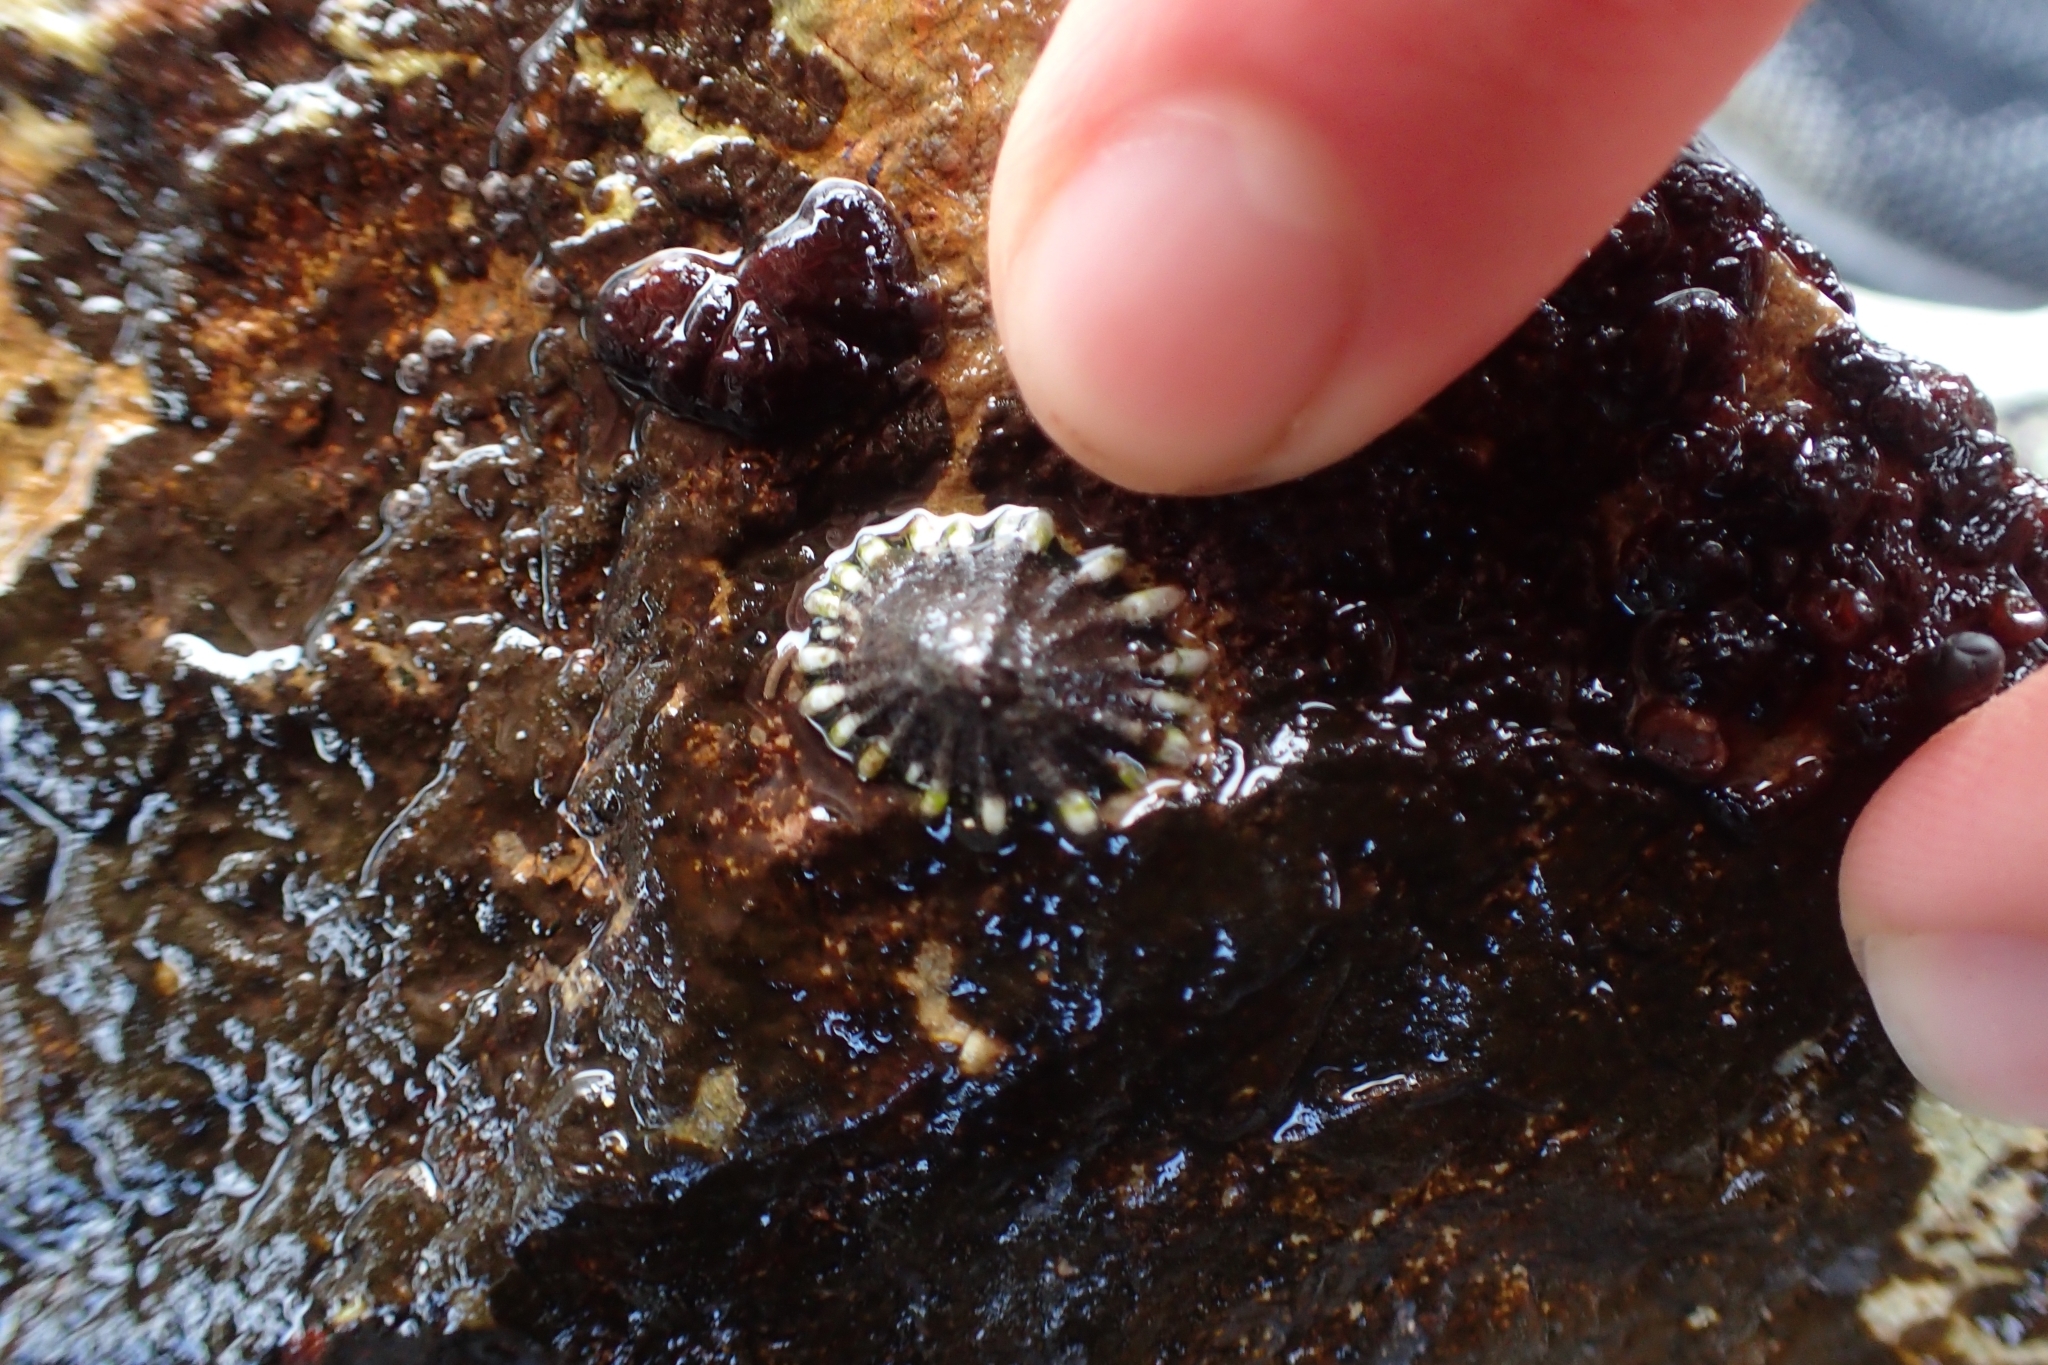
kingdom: Animalia
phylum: Mollusca
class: Gastropoda
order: Siphonariida
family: Siphonariidae
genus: Siphonaria
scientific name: Siphonaria australis
